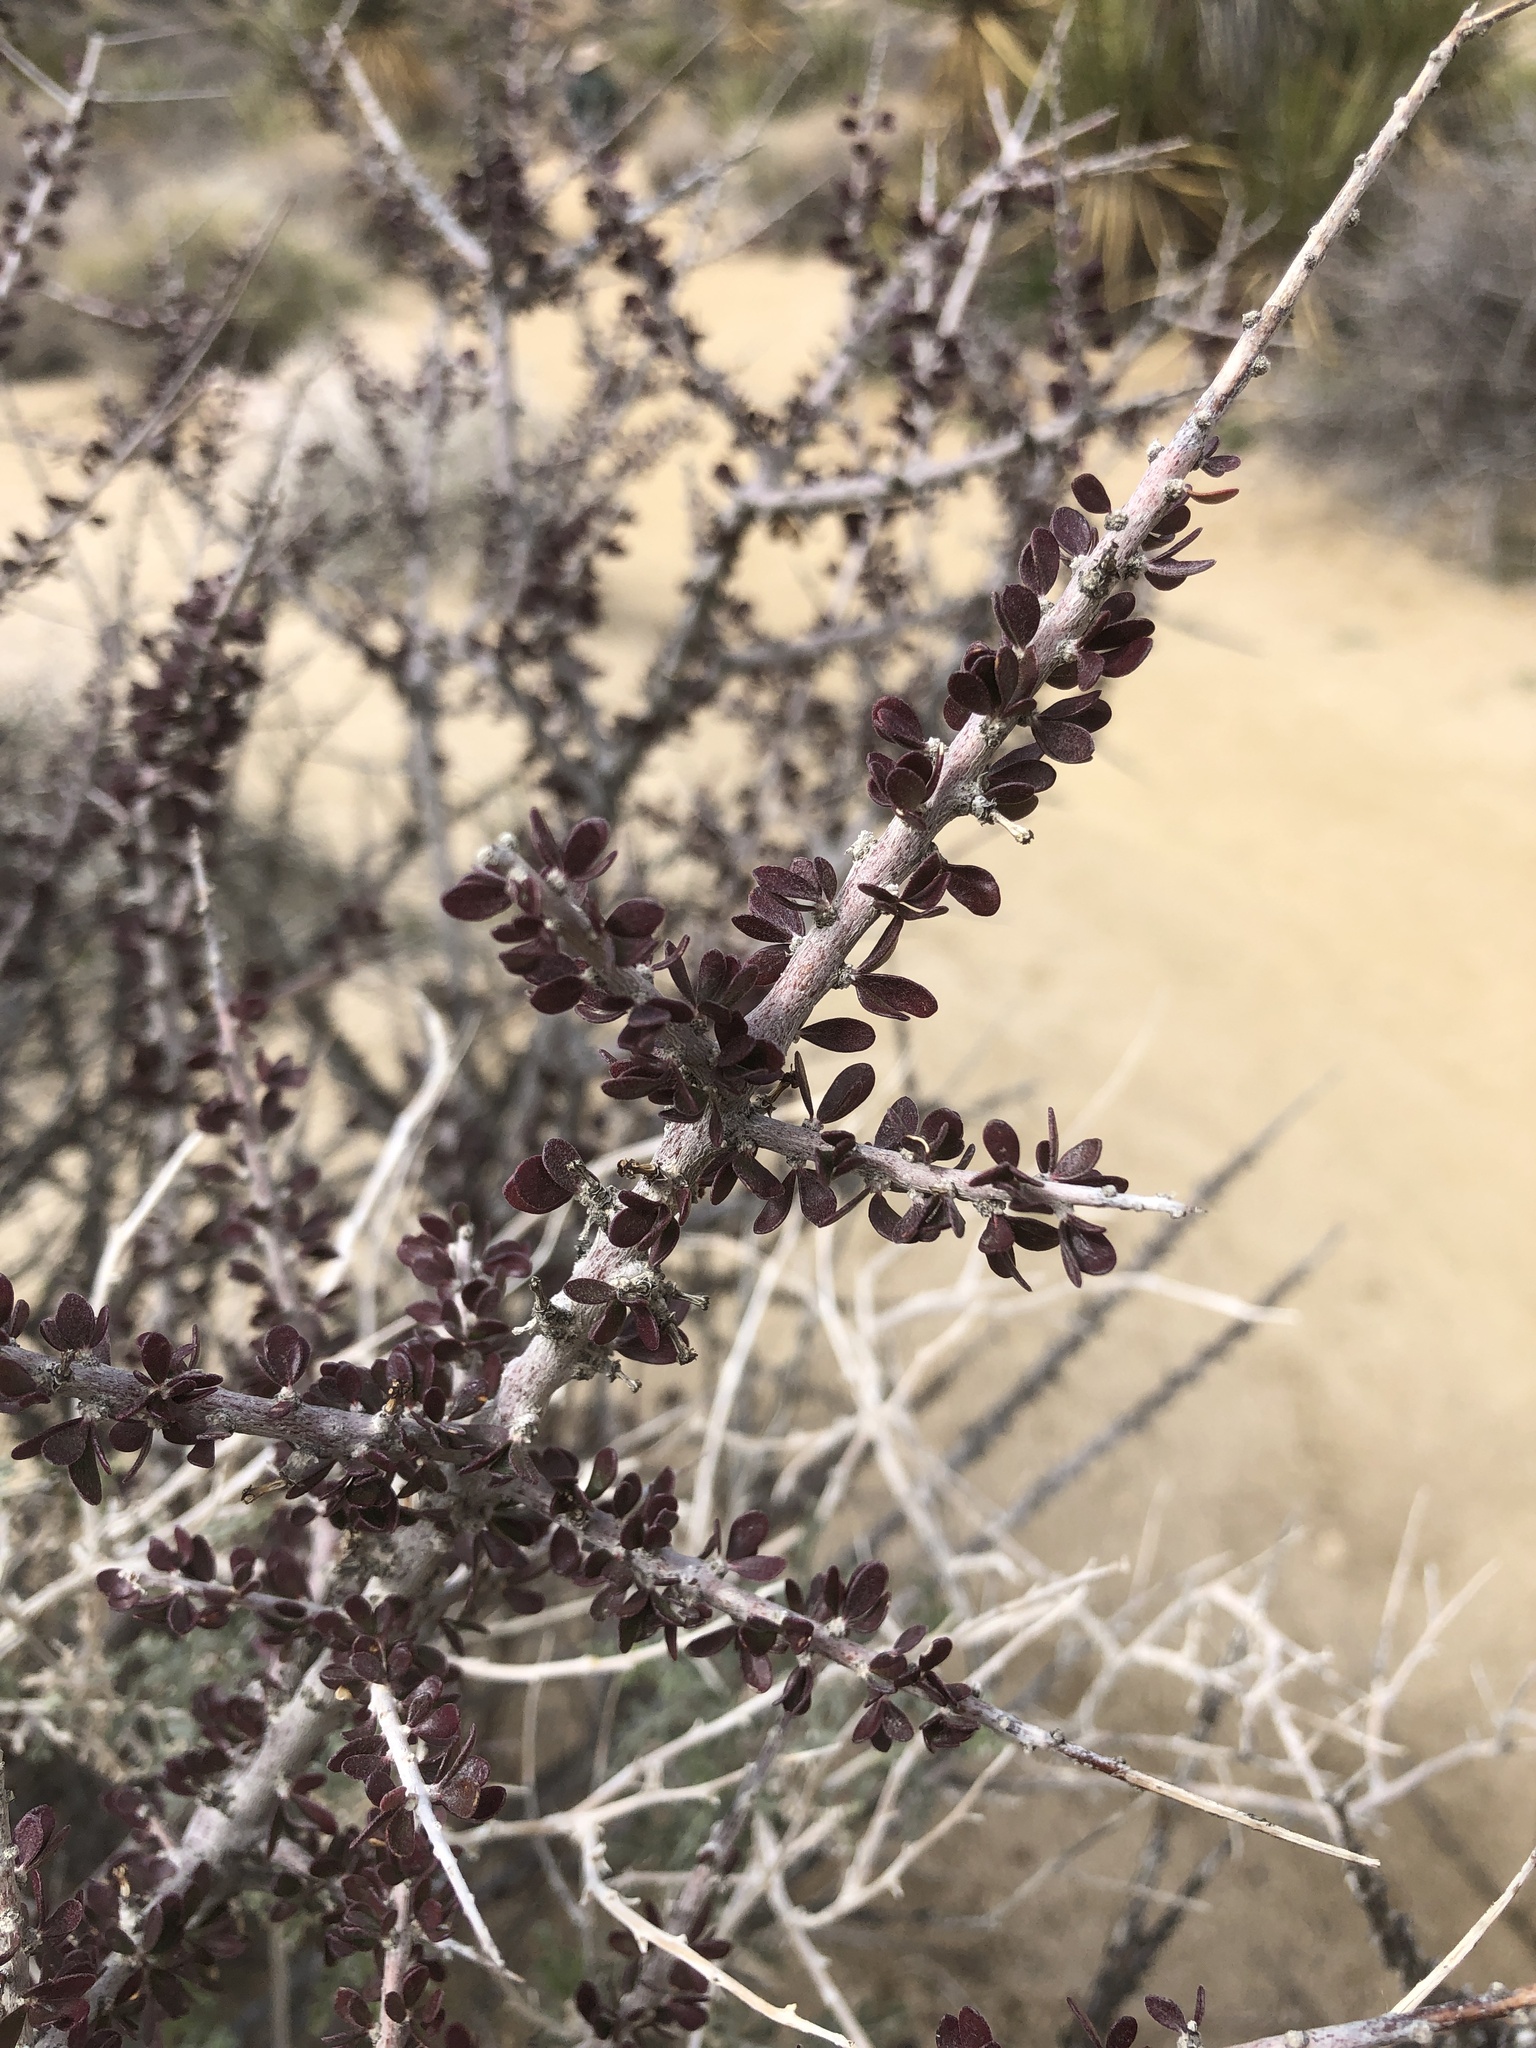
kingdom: Plantae
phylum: Tracheophyta
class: Magnoliopsida
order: Malpighiales
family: Picrodendraceae
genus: Tetracoccus
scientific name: Tetracoccus hallii
